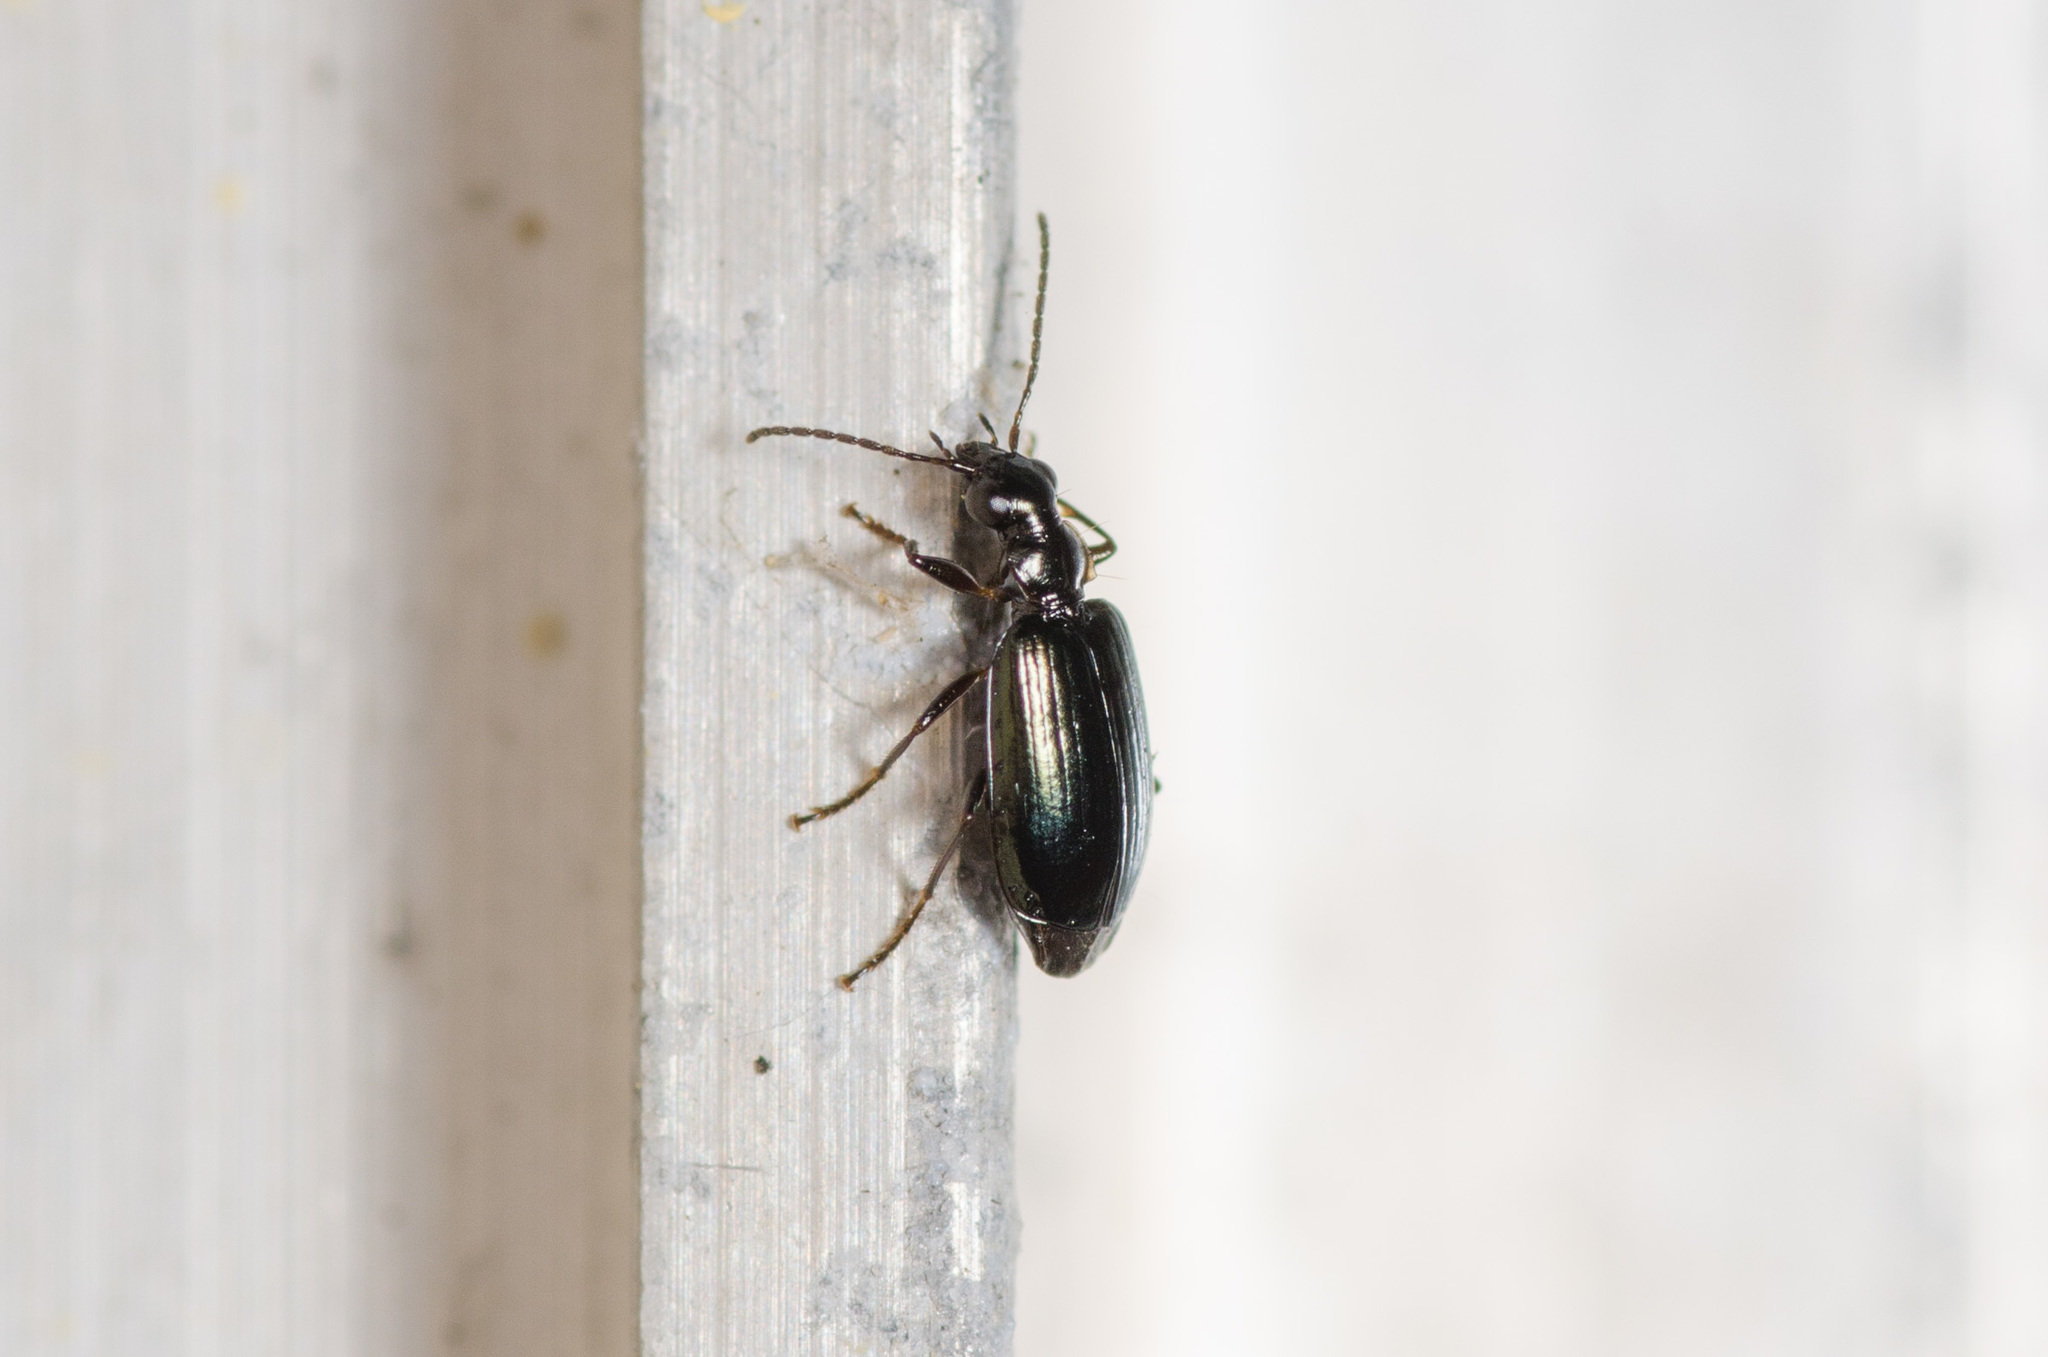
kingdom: Animalia
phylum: Arthropoda
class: Insecta
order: Coleoptera
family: Carabidae
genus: Lebia
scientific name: Lebia marginicollis
